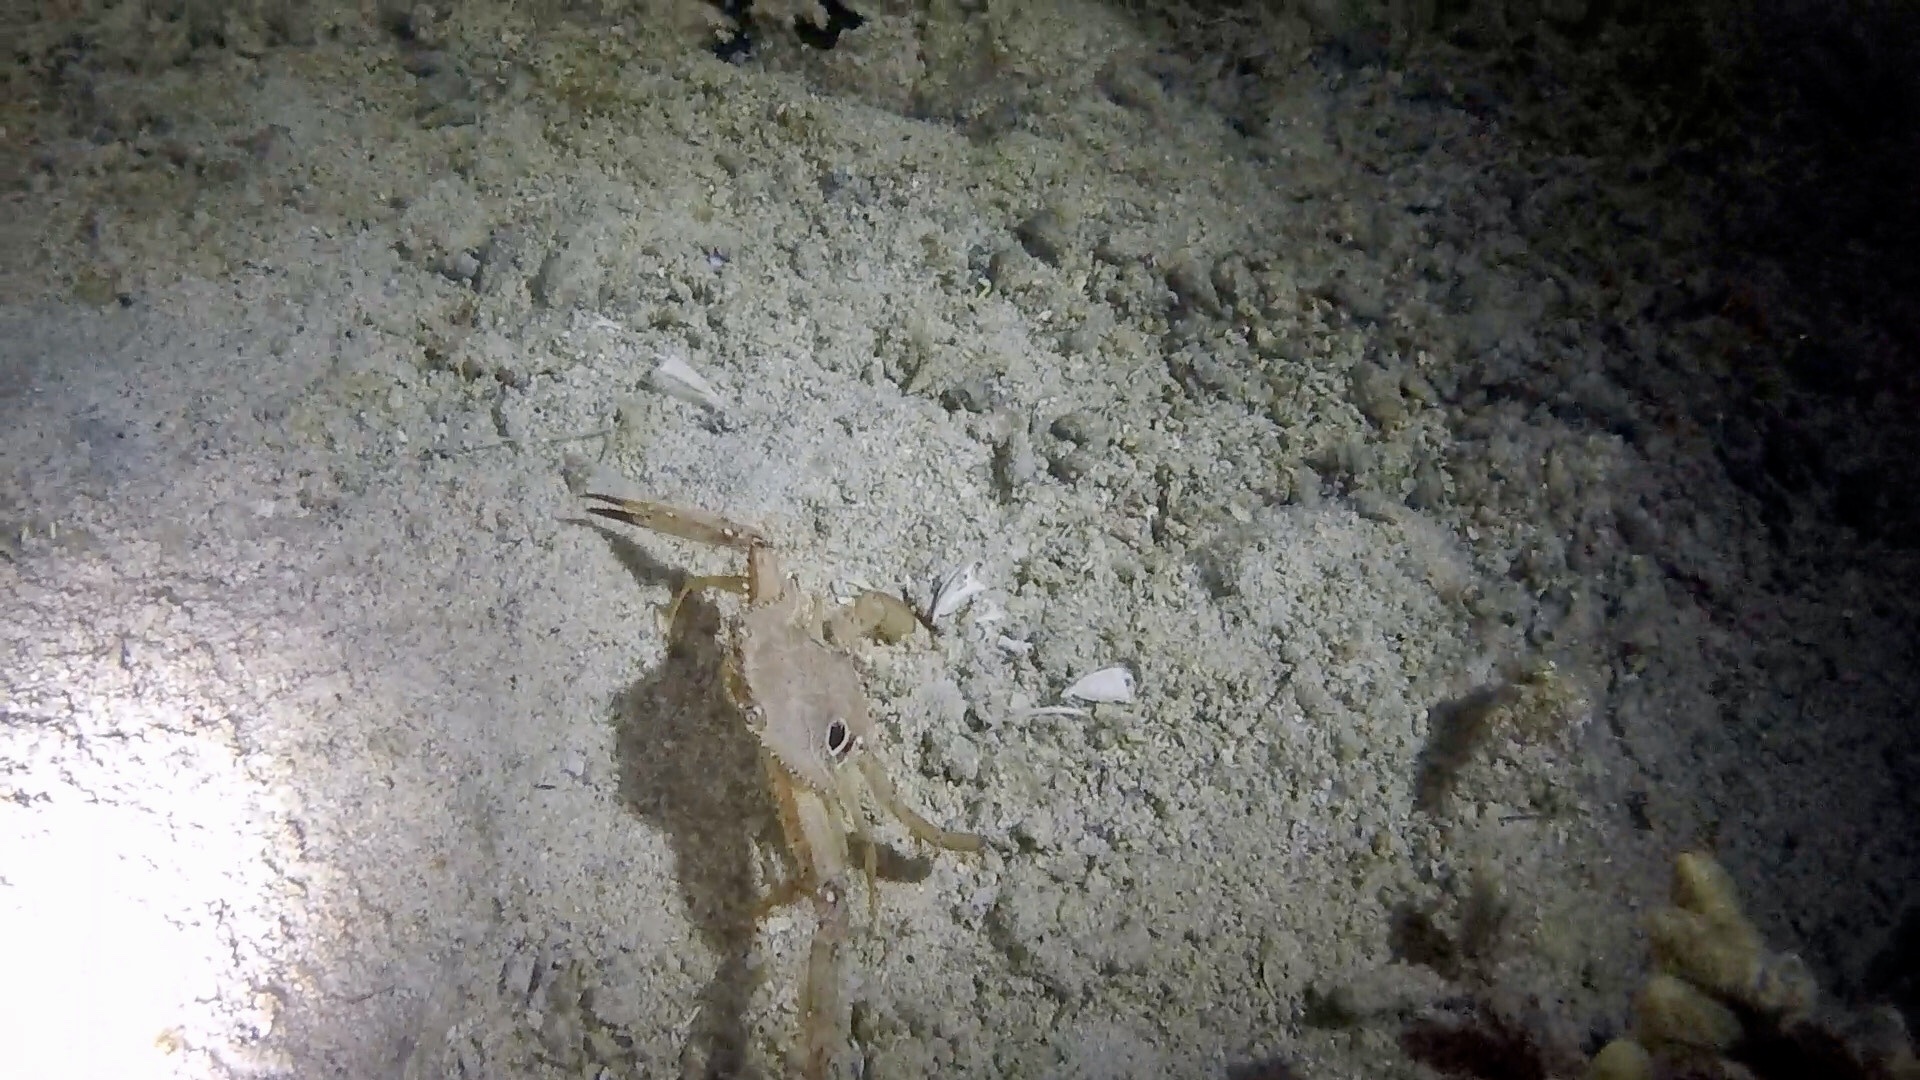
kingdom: Animalia
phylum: Arthropoda
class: Malacostraca
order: Decapoda
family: Portunidae
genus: Achelous
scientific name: Achelous sebae
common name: Ocellate swimming crab
